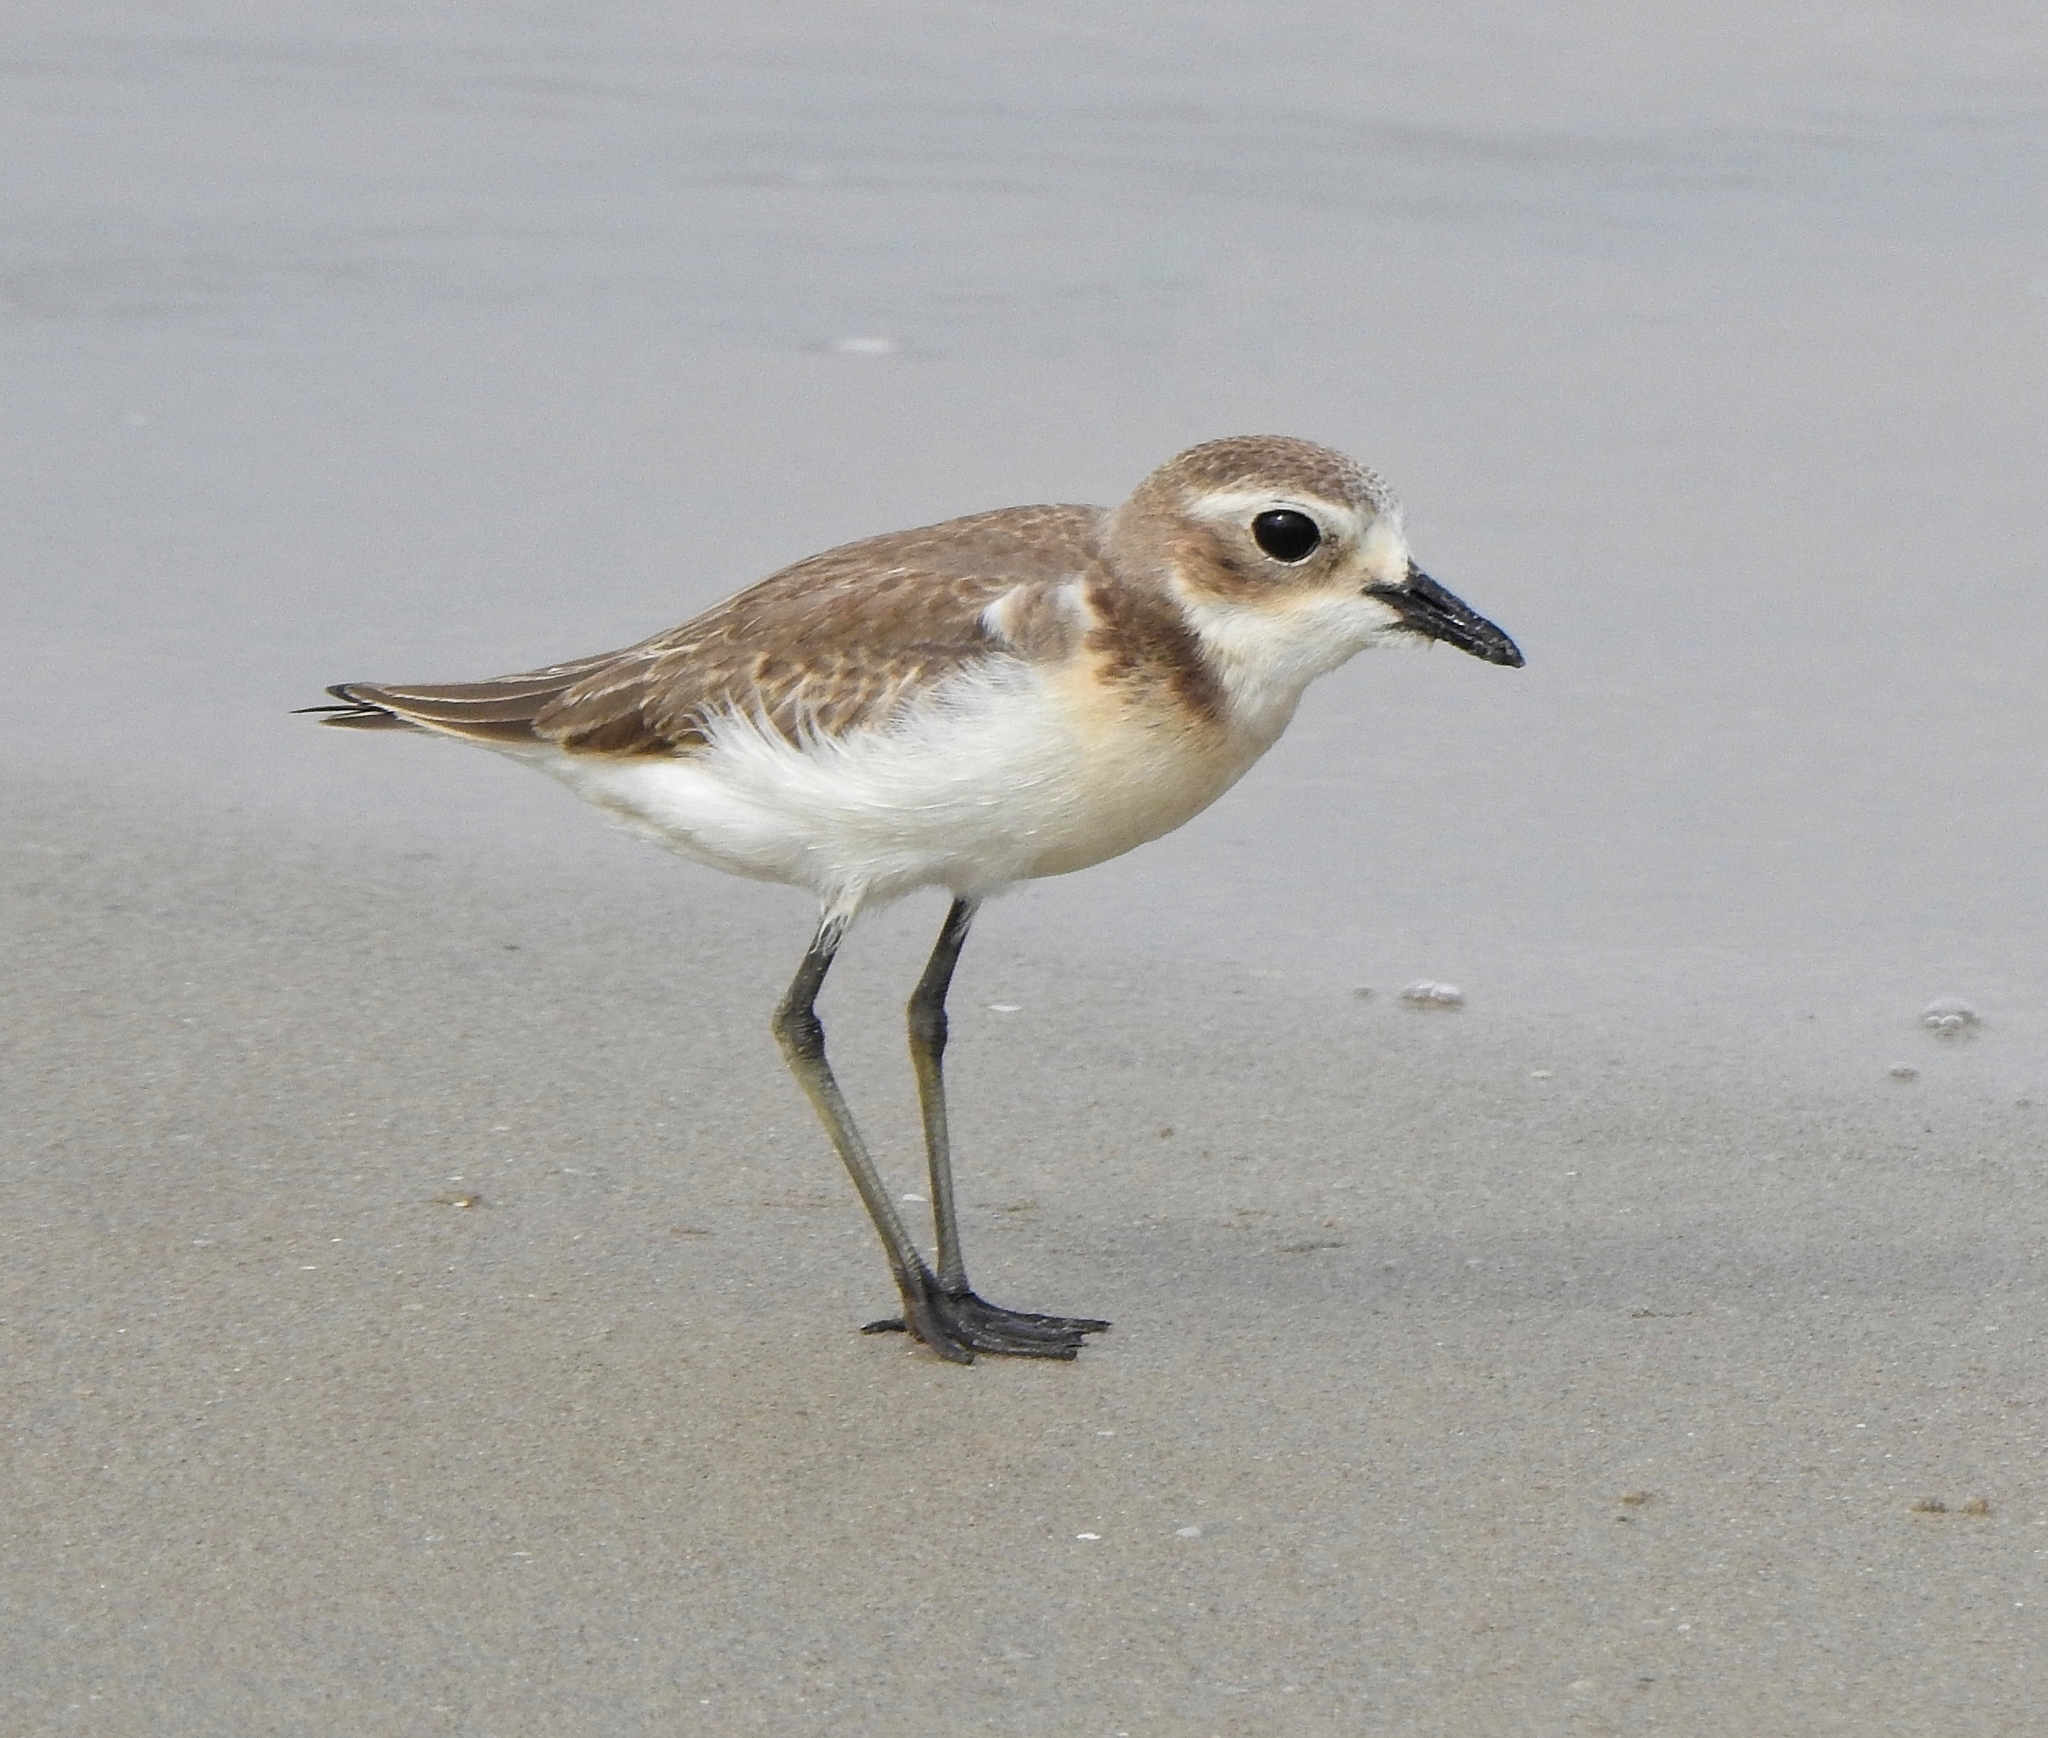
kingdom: Animalia
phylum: Chordata
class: Aves
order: Charadriiformes
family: Charadriidae
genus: Anarhynchus
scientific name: Anarhynchus
